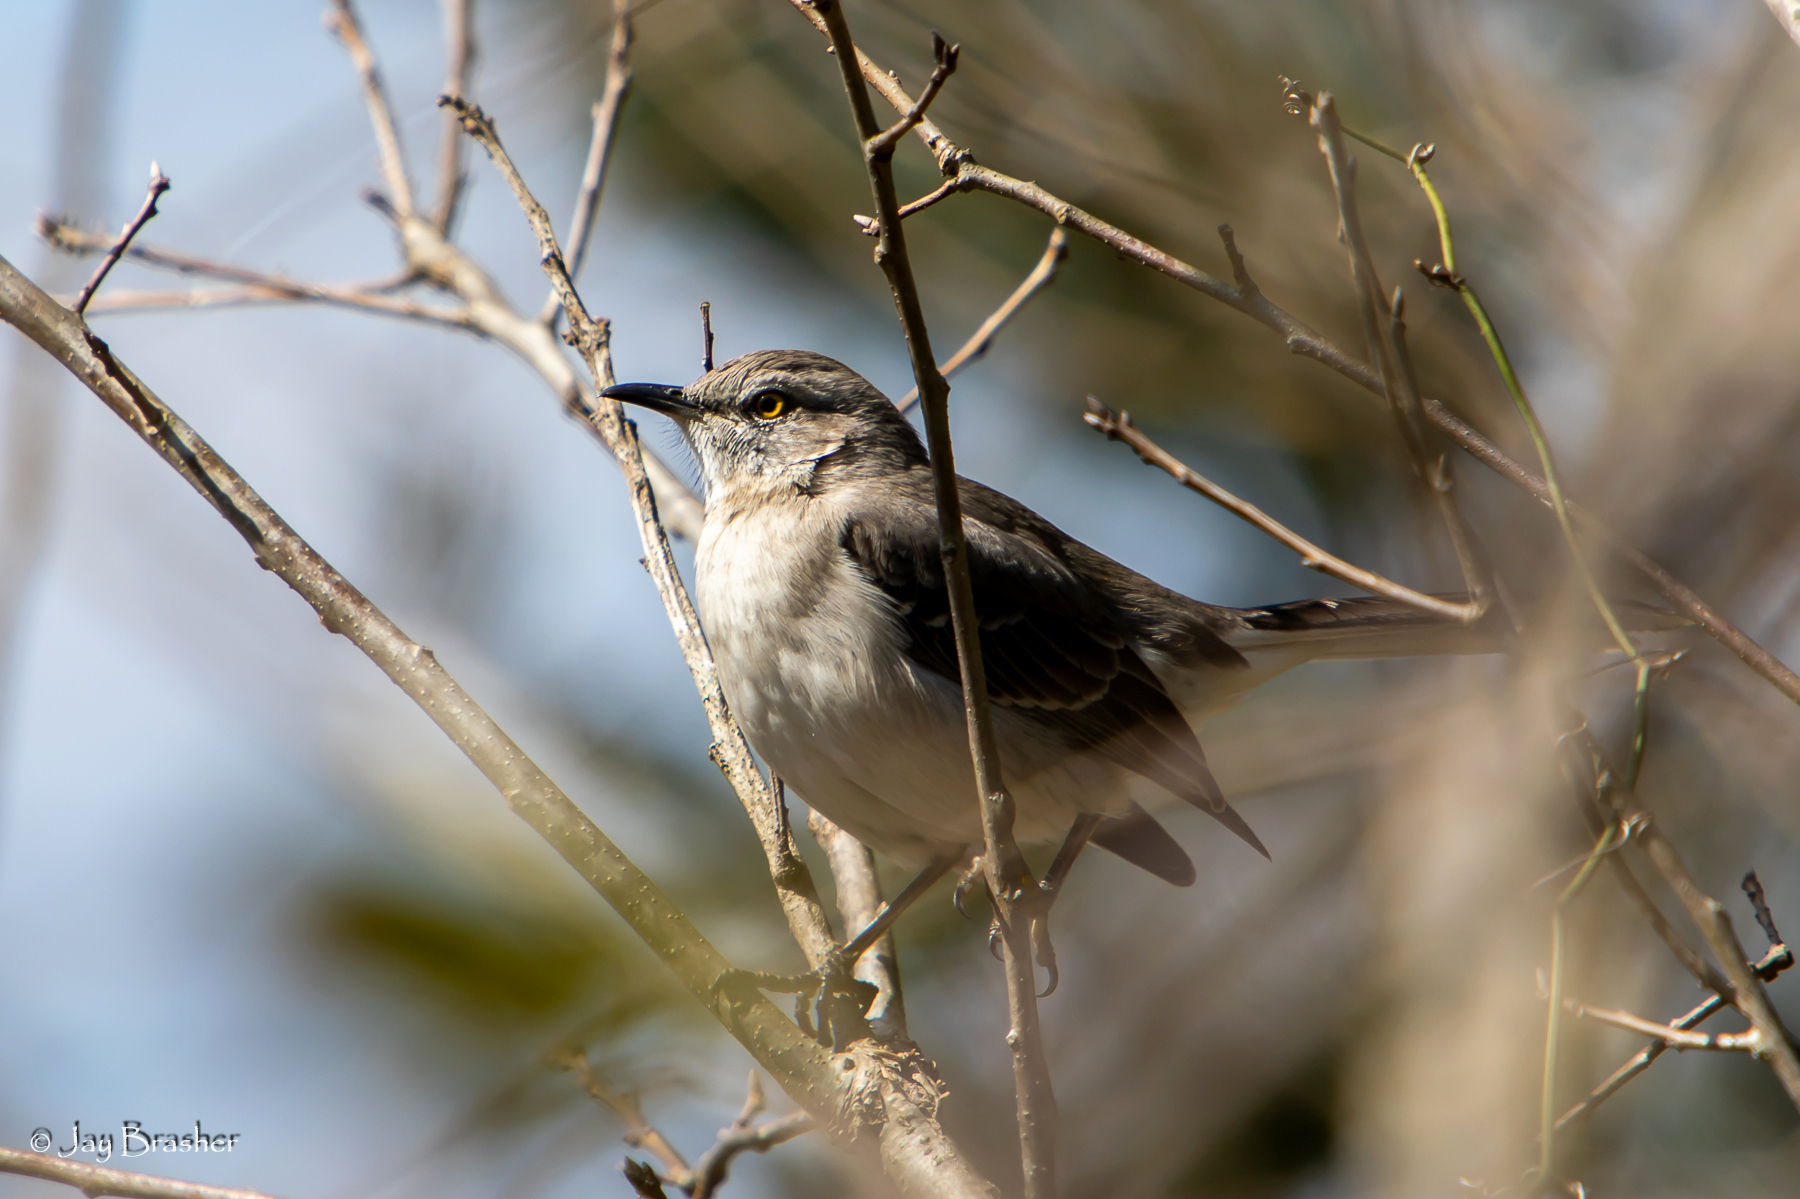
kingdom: Animalia
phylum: Chordata
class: Aves
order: Passeriformes
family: Mimidae
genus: Mimus
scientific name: Mimus polyglottos
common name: Northern mockingbird
